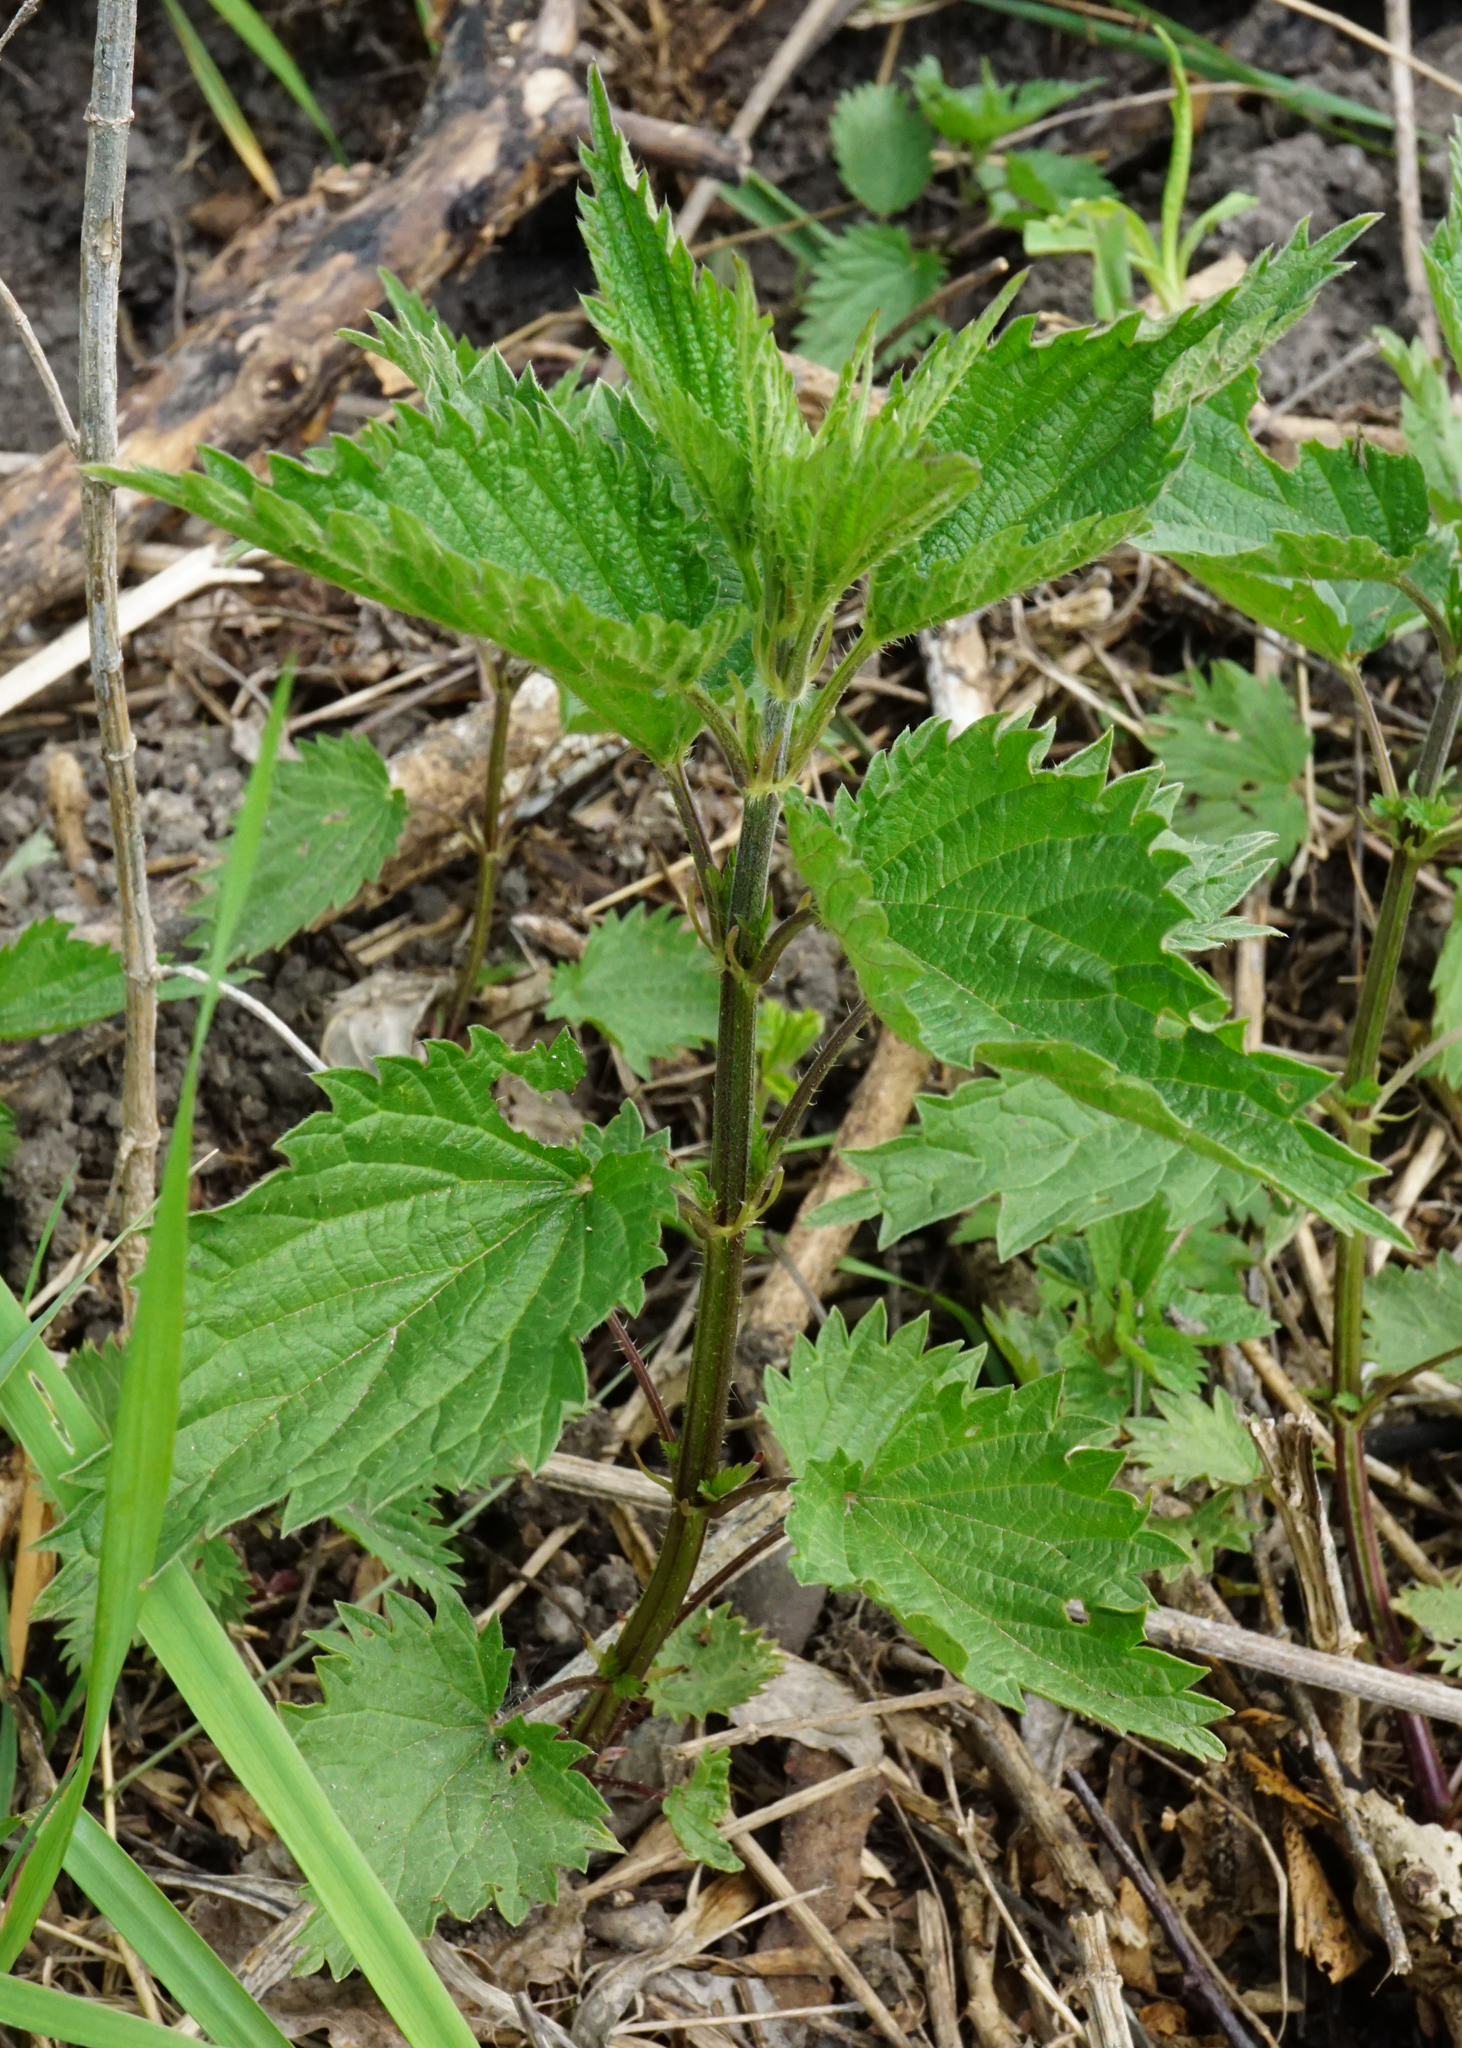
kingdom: Plantae
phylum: Tracheophyta
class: Magnoliopsida
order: Rosales
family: Urticaceae
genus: Urtica
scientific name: Urtica dioica
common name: Common nettle
